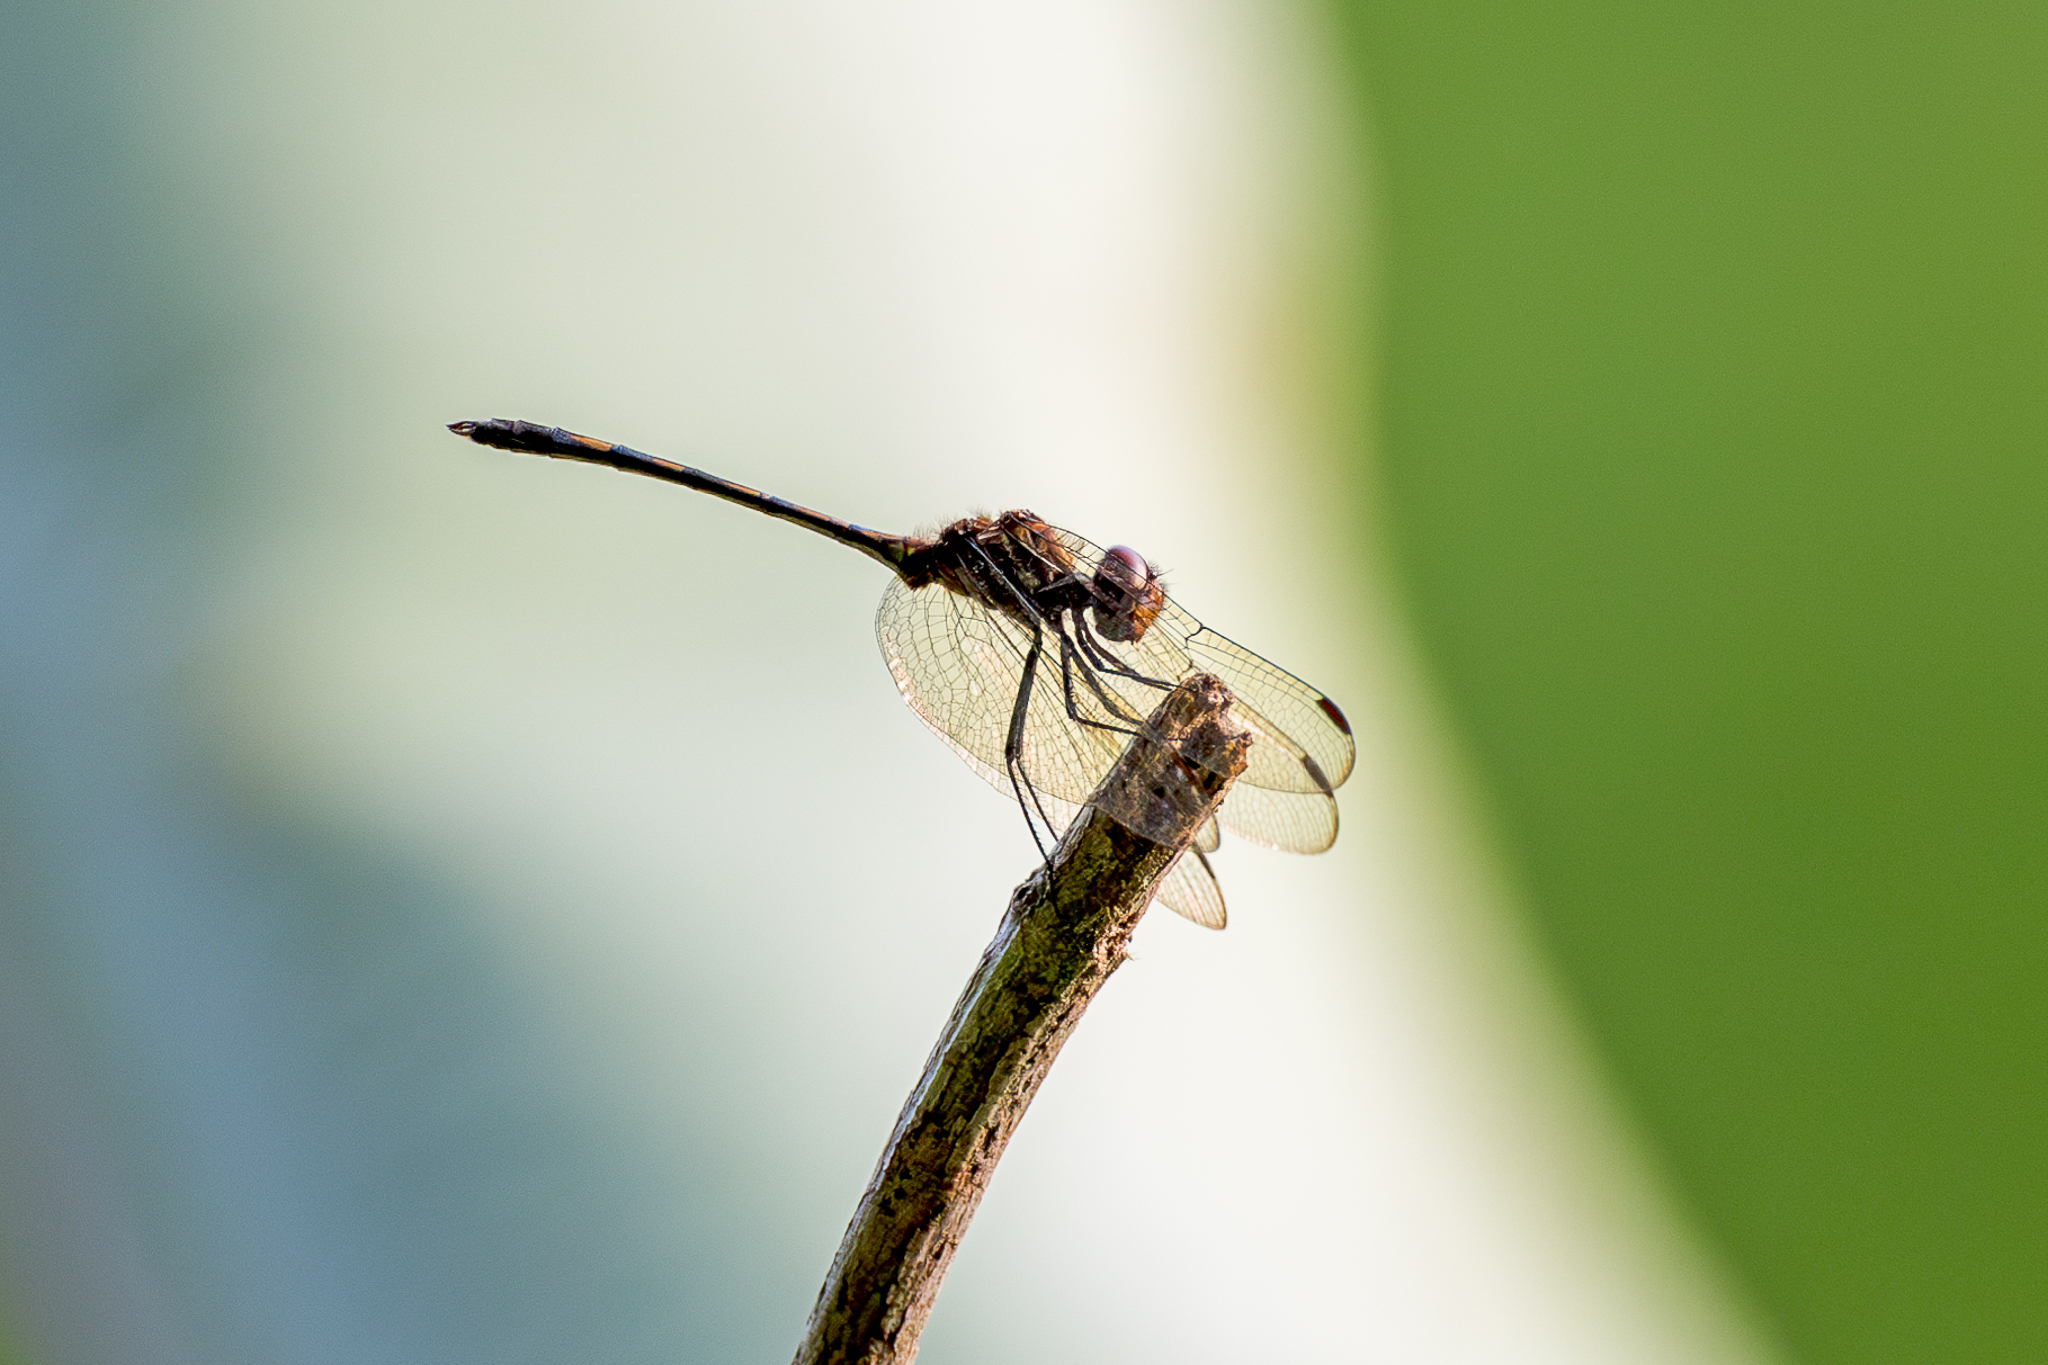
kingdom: Animalia
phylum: Arthropoda
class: Insecta
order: Odonata
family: Libellulidae
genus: Dythemis
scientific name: Dythemis sterilis
